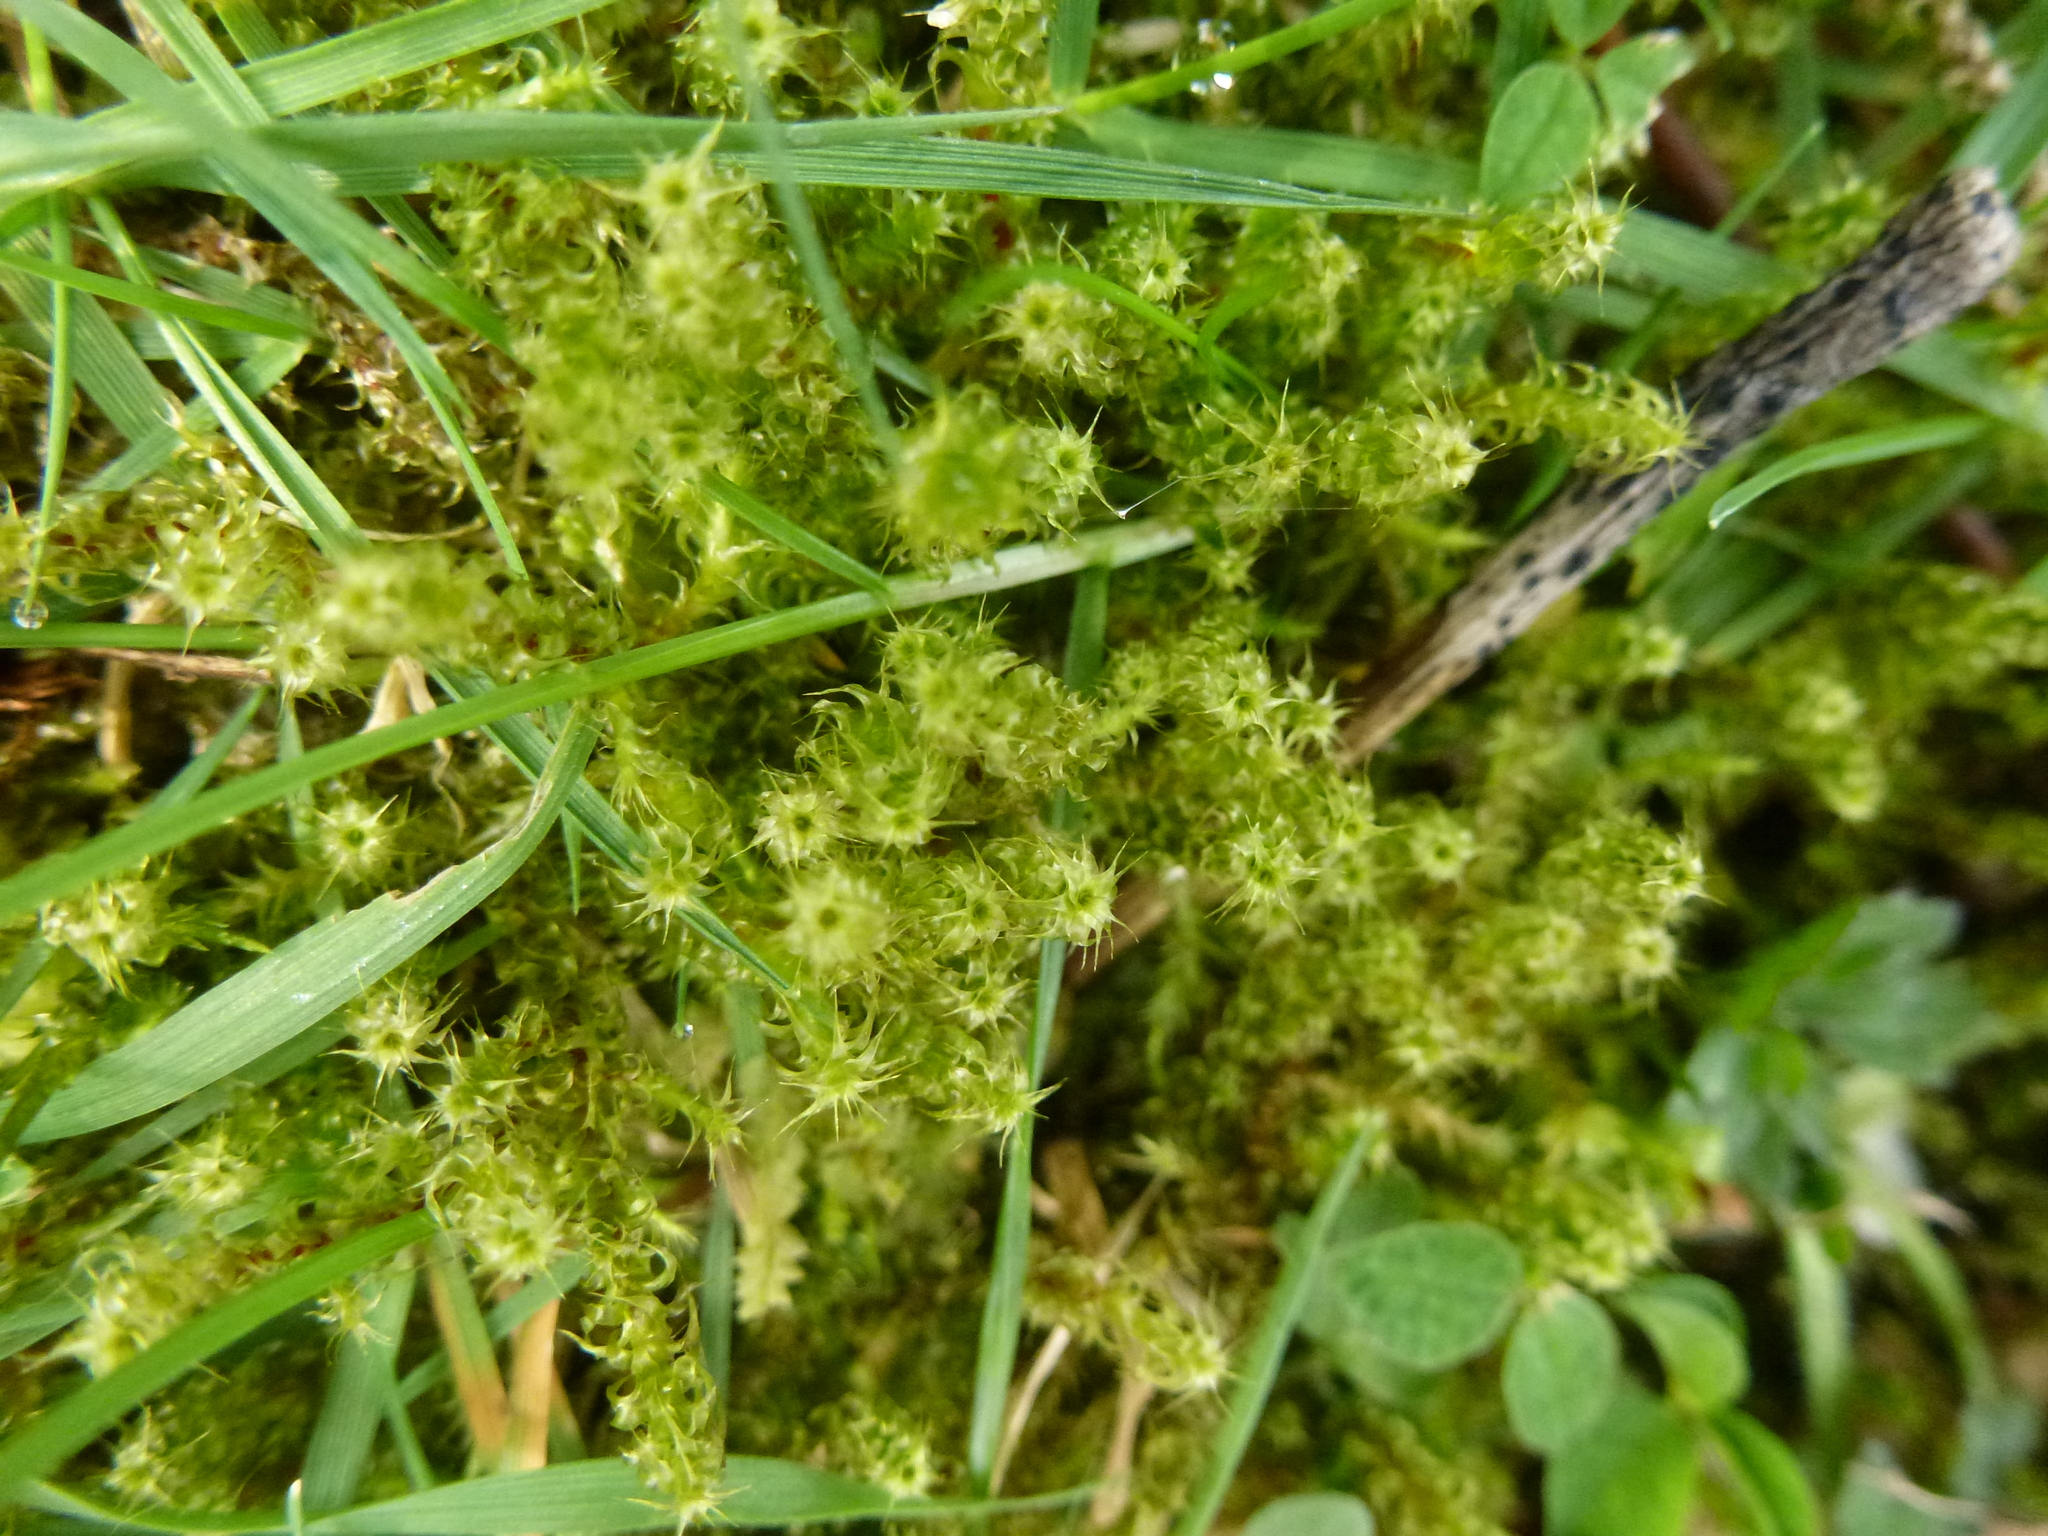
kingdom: Plantae
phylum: Bryophyta
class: Bryopsida
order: Hypnales
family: Hylocomiaceae
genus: Rhytidiadelphus
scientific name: Rhytidiadelphus squarrosus
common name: Springy turf-moss
